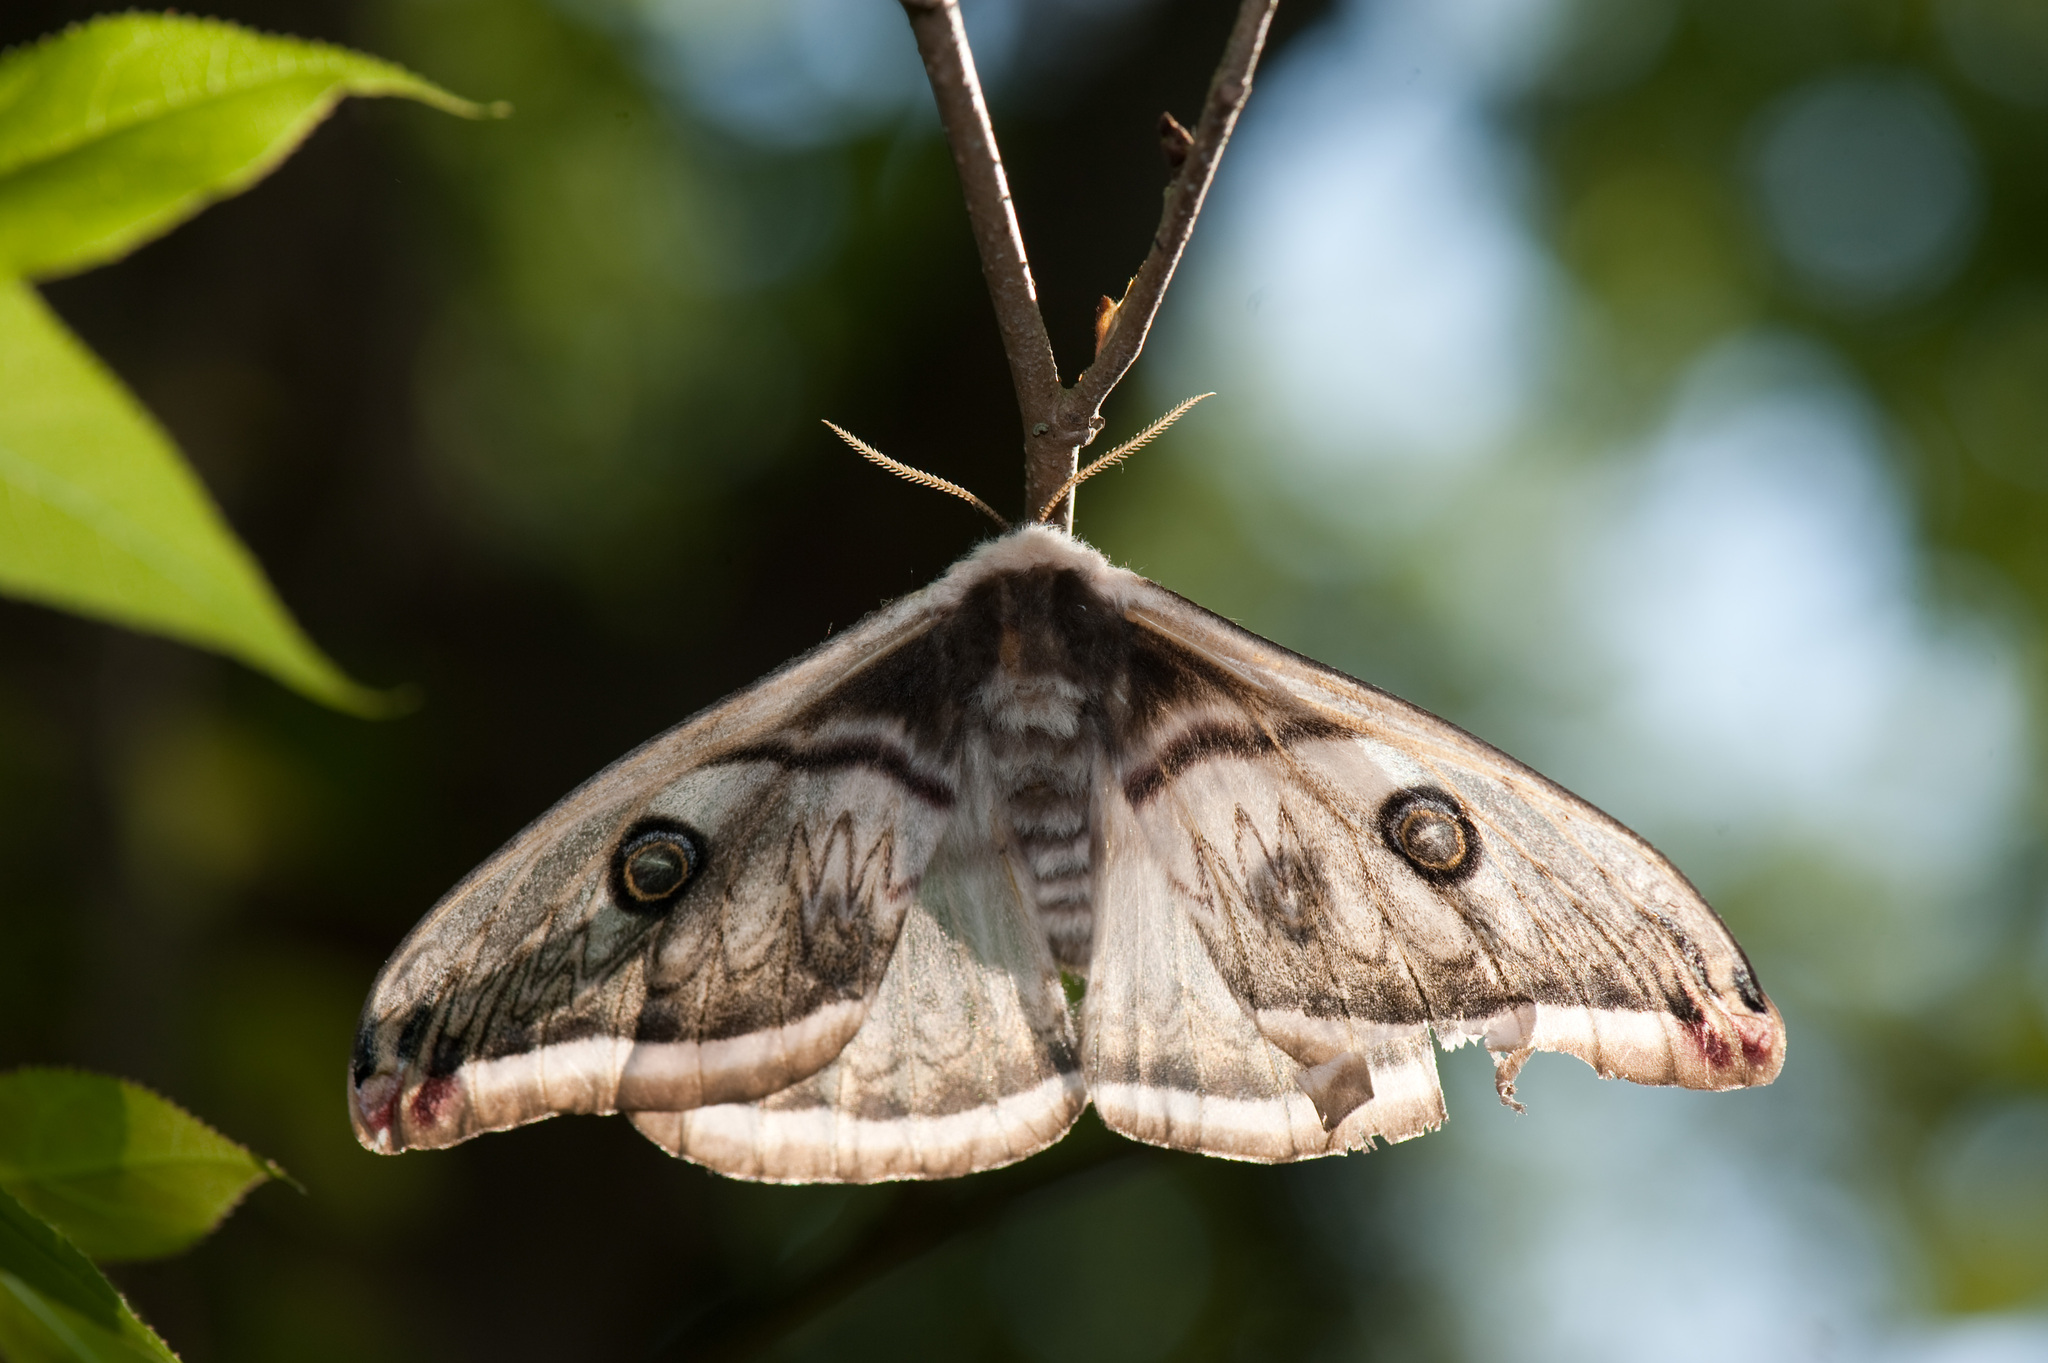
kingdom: Animalia
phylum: Arthropoda
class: Insecta
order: Lepidoptera
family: Saturniidae
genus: Saturnia
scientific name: Saturnia pyretorum
